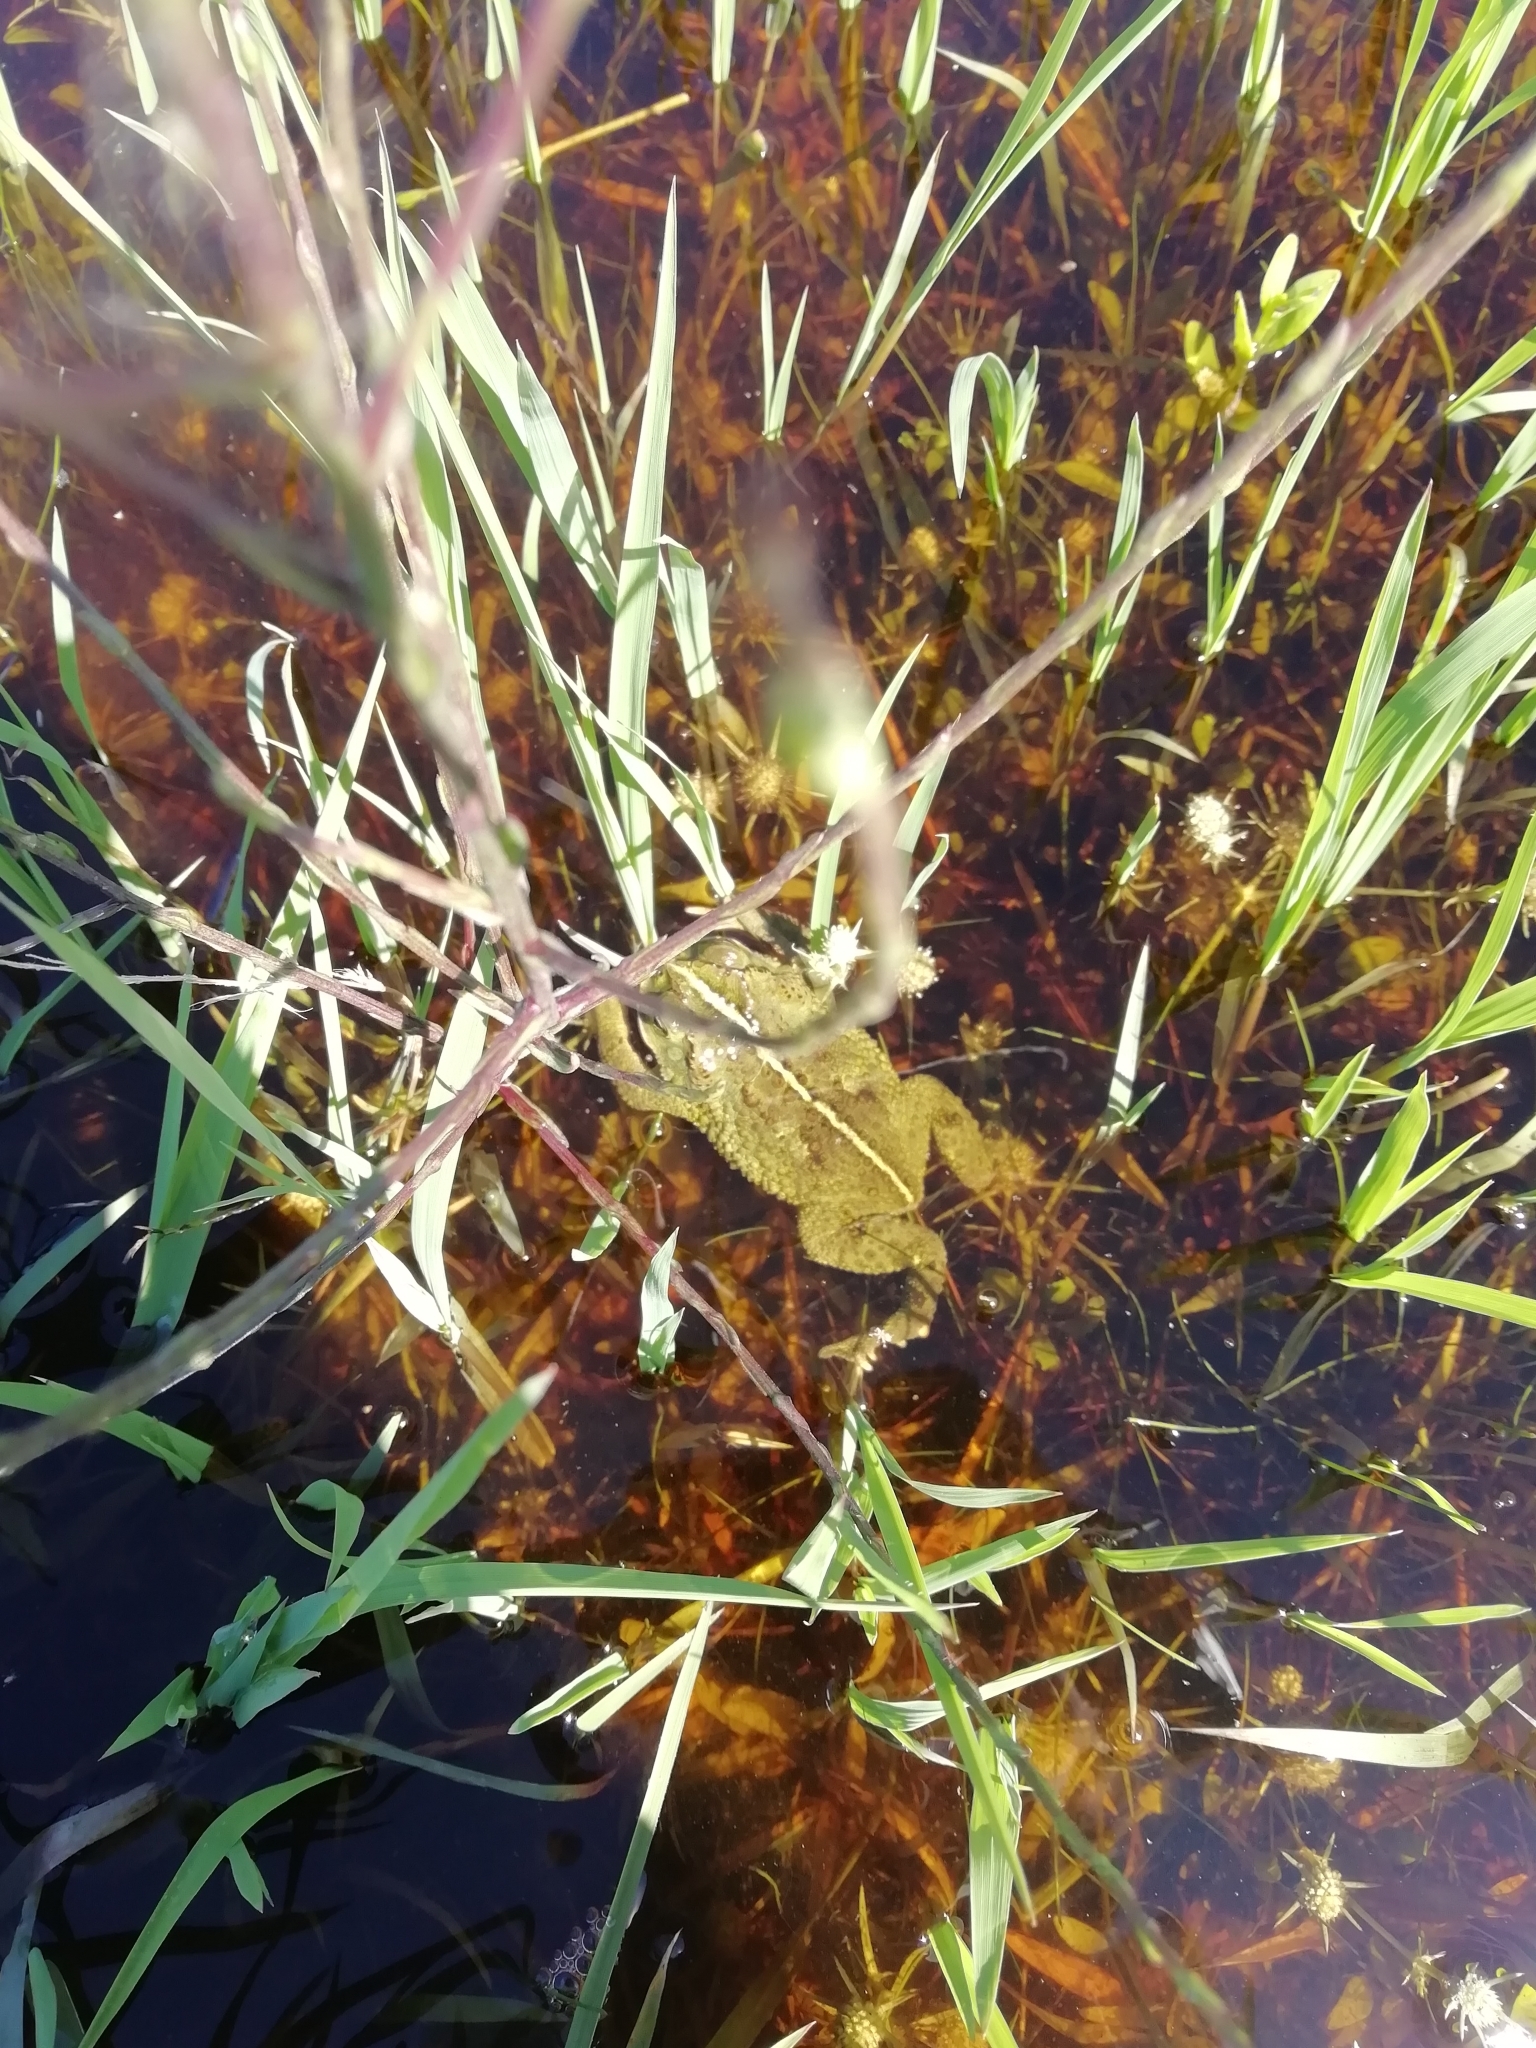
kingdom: Animalia
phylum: Chordata
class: Amphibia
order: Anura
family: Bufonidae
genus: Rhinella
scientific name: Rhinella dorbignyi
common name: D´orbigny’s toad
